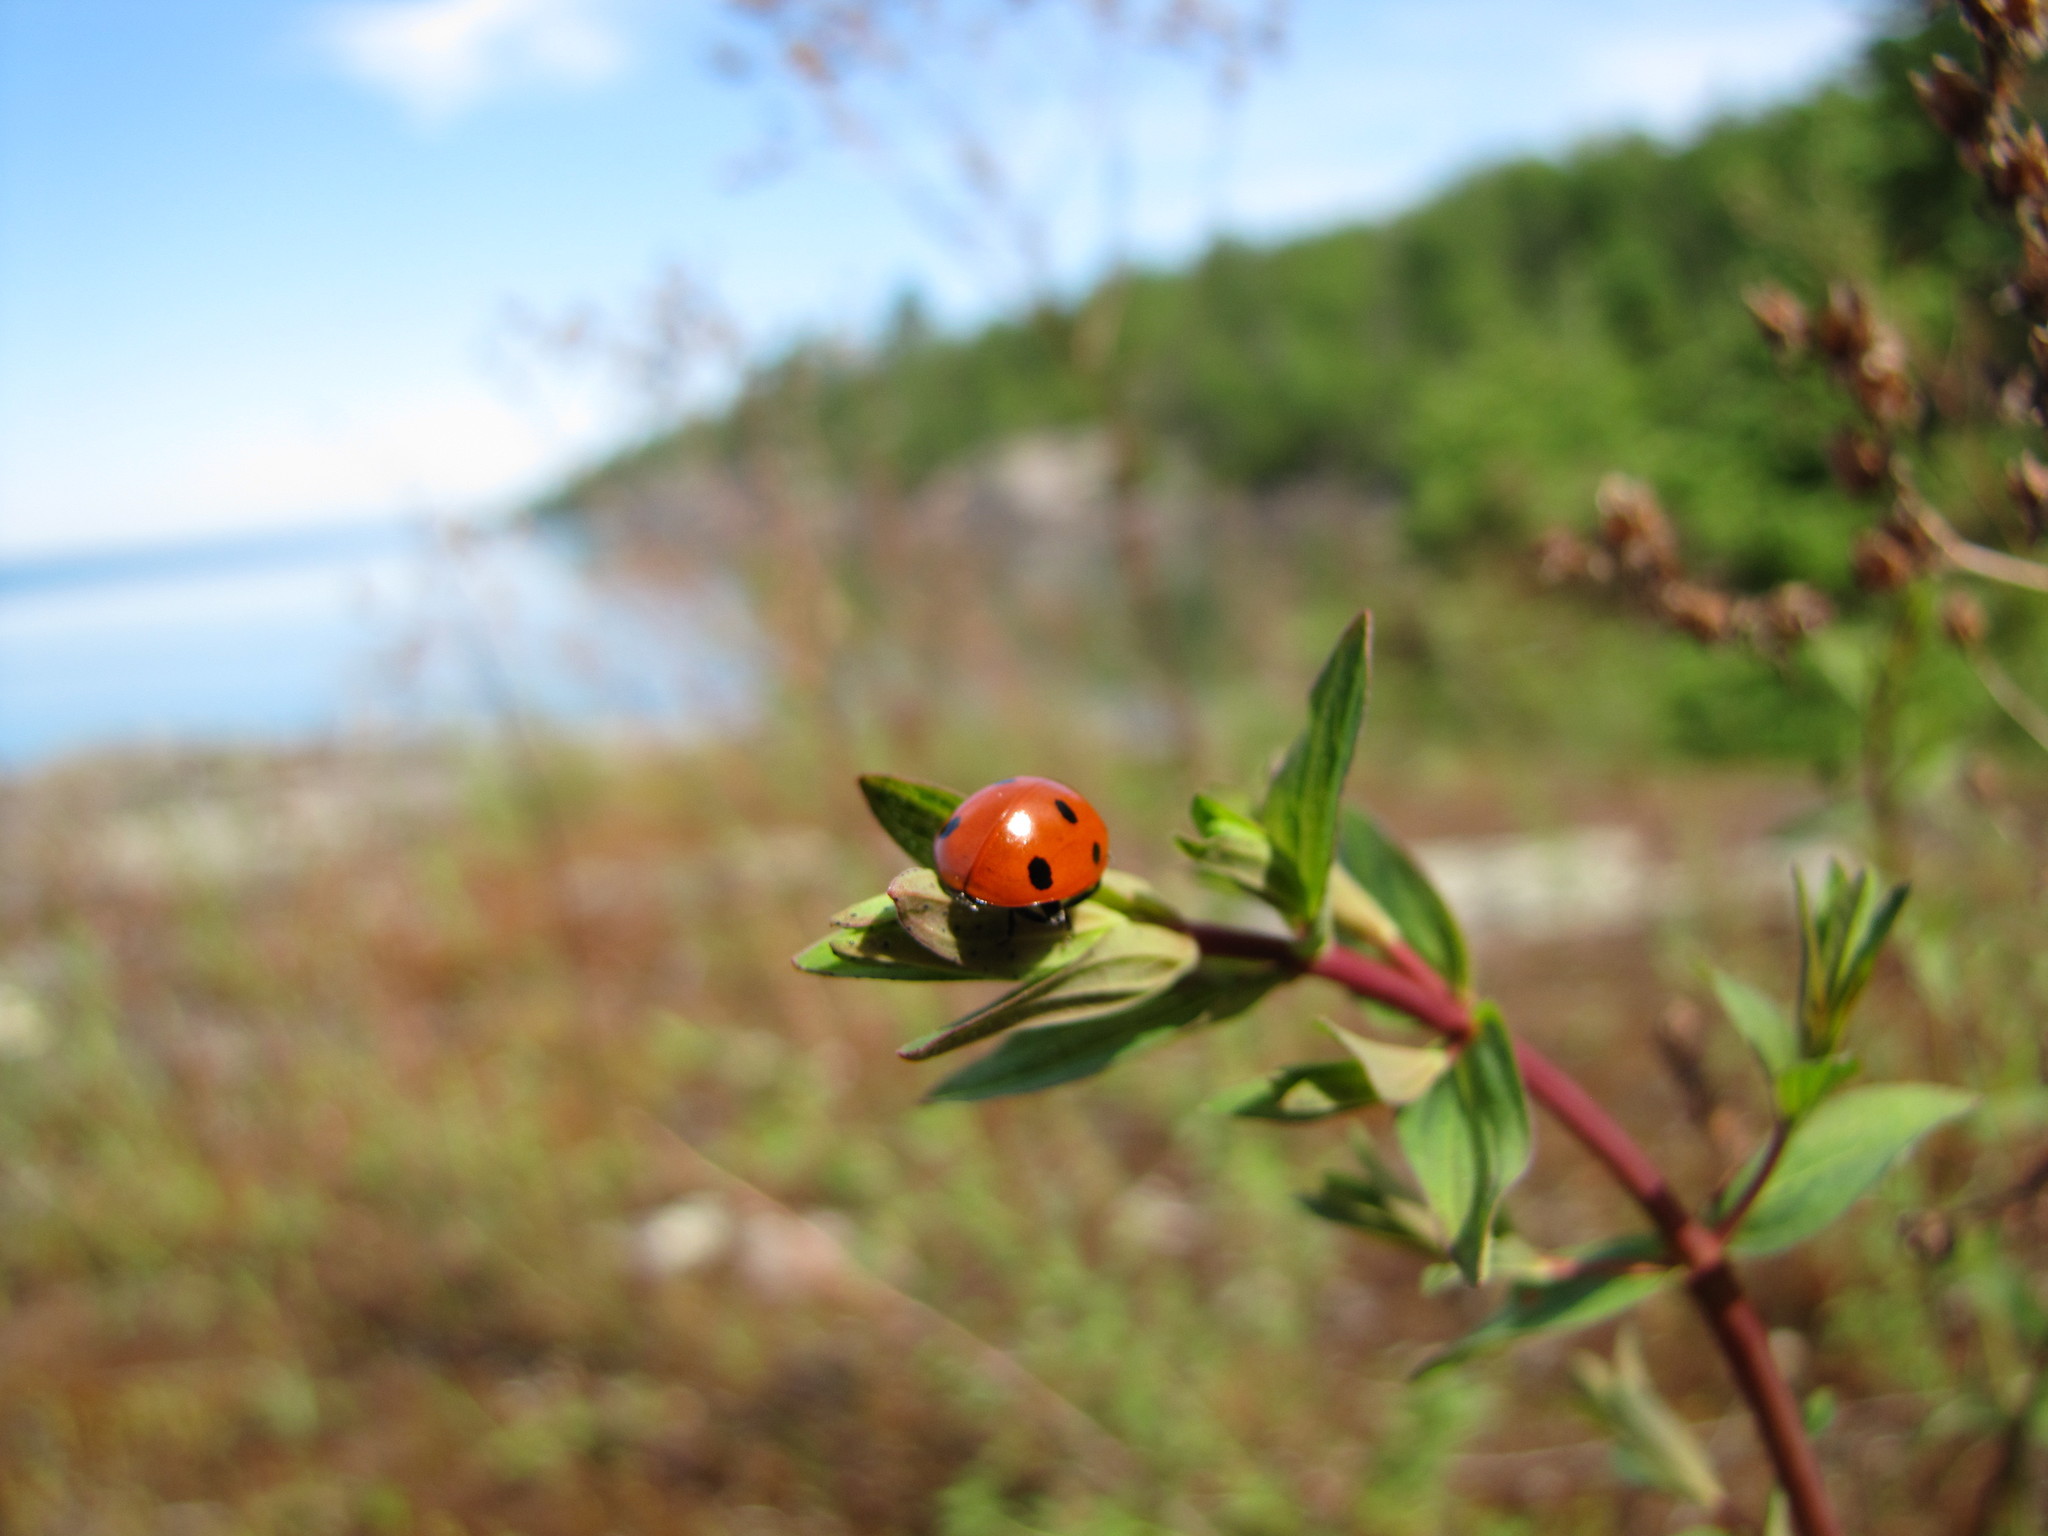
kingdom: Animalia
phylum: Arthropoda
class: Insecta
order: Coleoptera
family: Coccinellidae
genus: Coccinella
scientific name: Coccinella septempunctata
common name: Sevenspotted lady beetle
